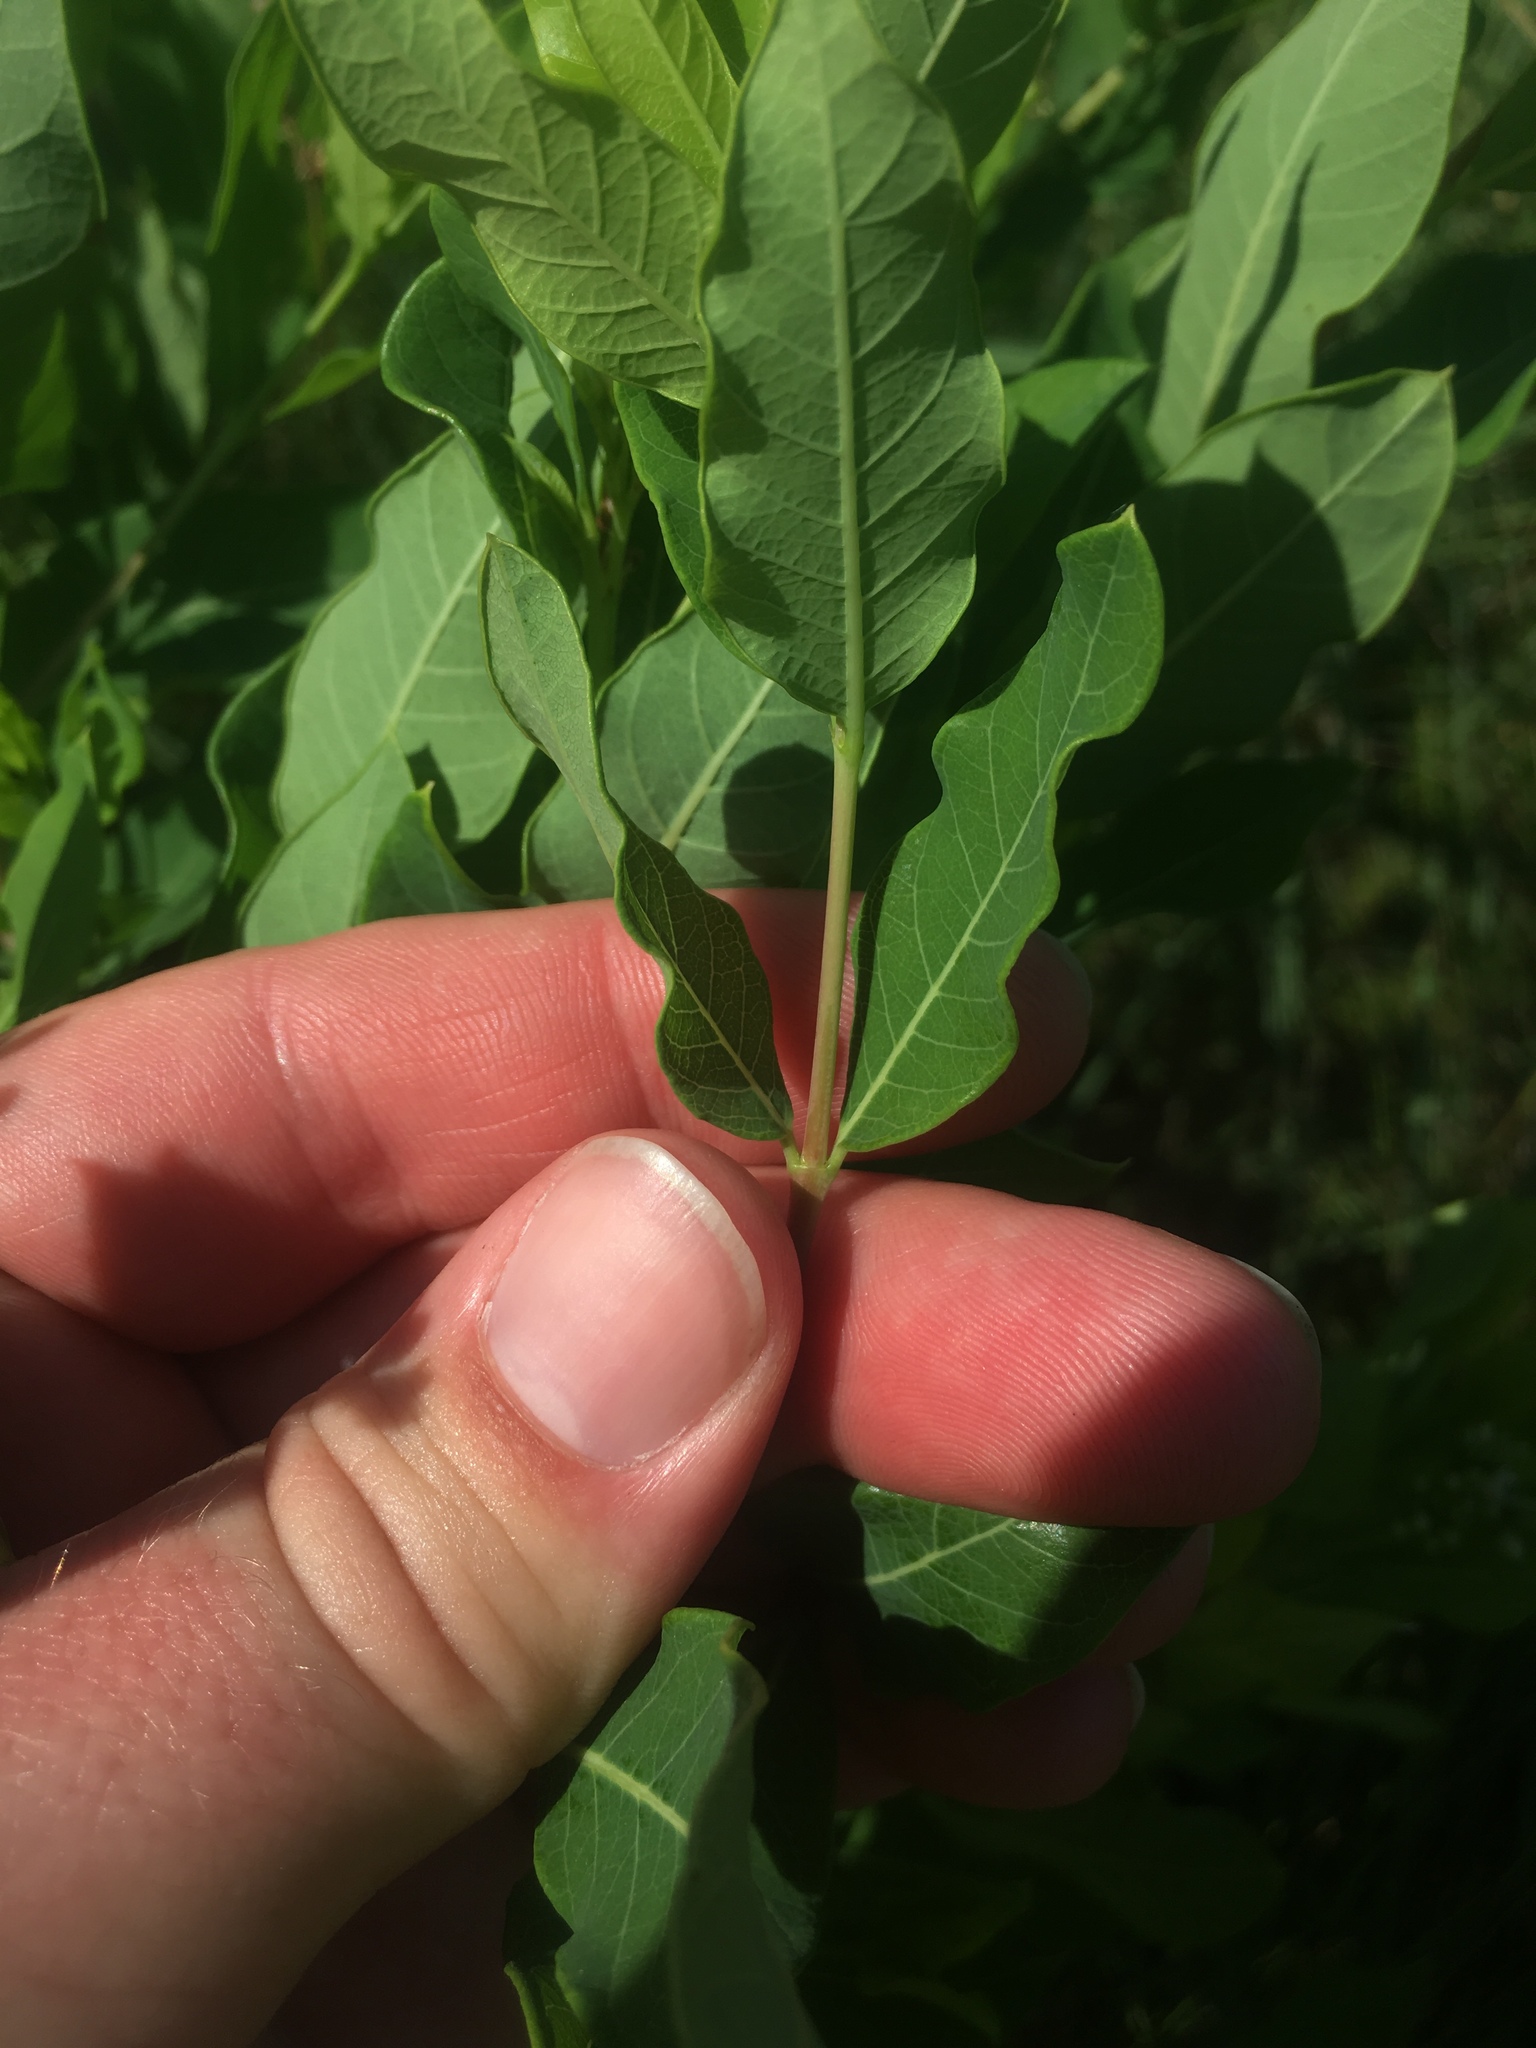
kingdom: Plantae
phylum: Tracheophyta
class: Magnoliopsida
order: Gentianales
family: Apocynaceae
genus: Apocynum
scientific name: Apocynum cannabinum
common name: Hemp dogbane
